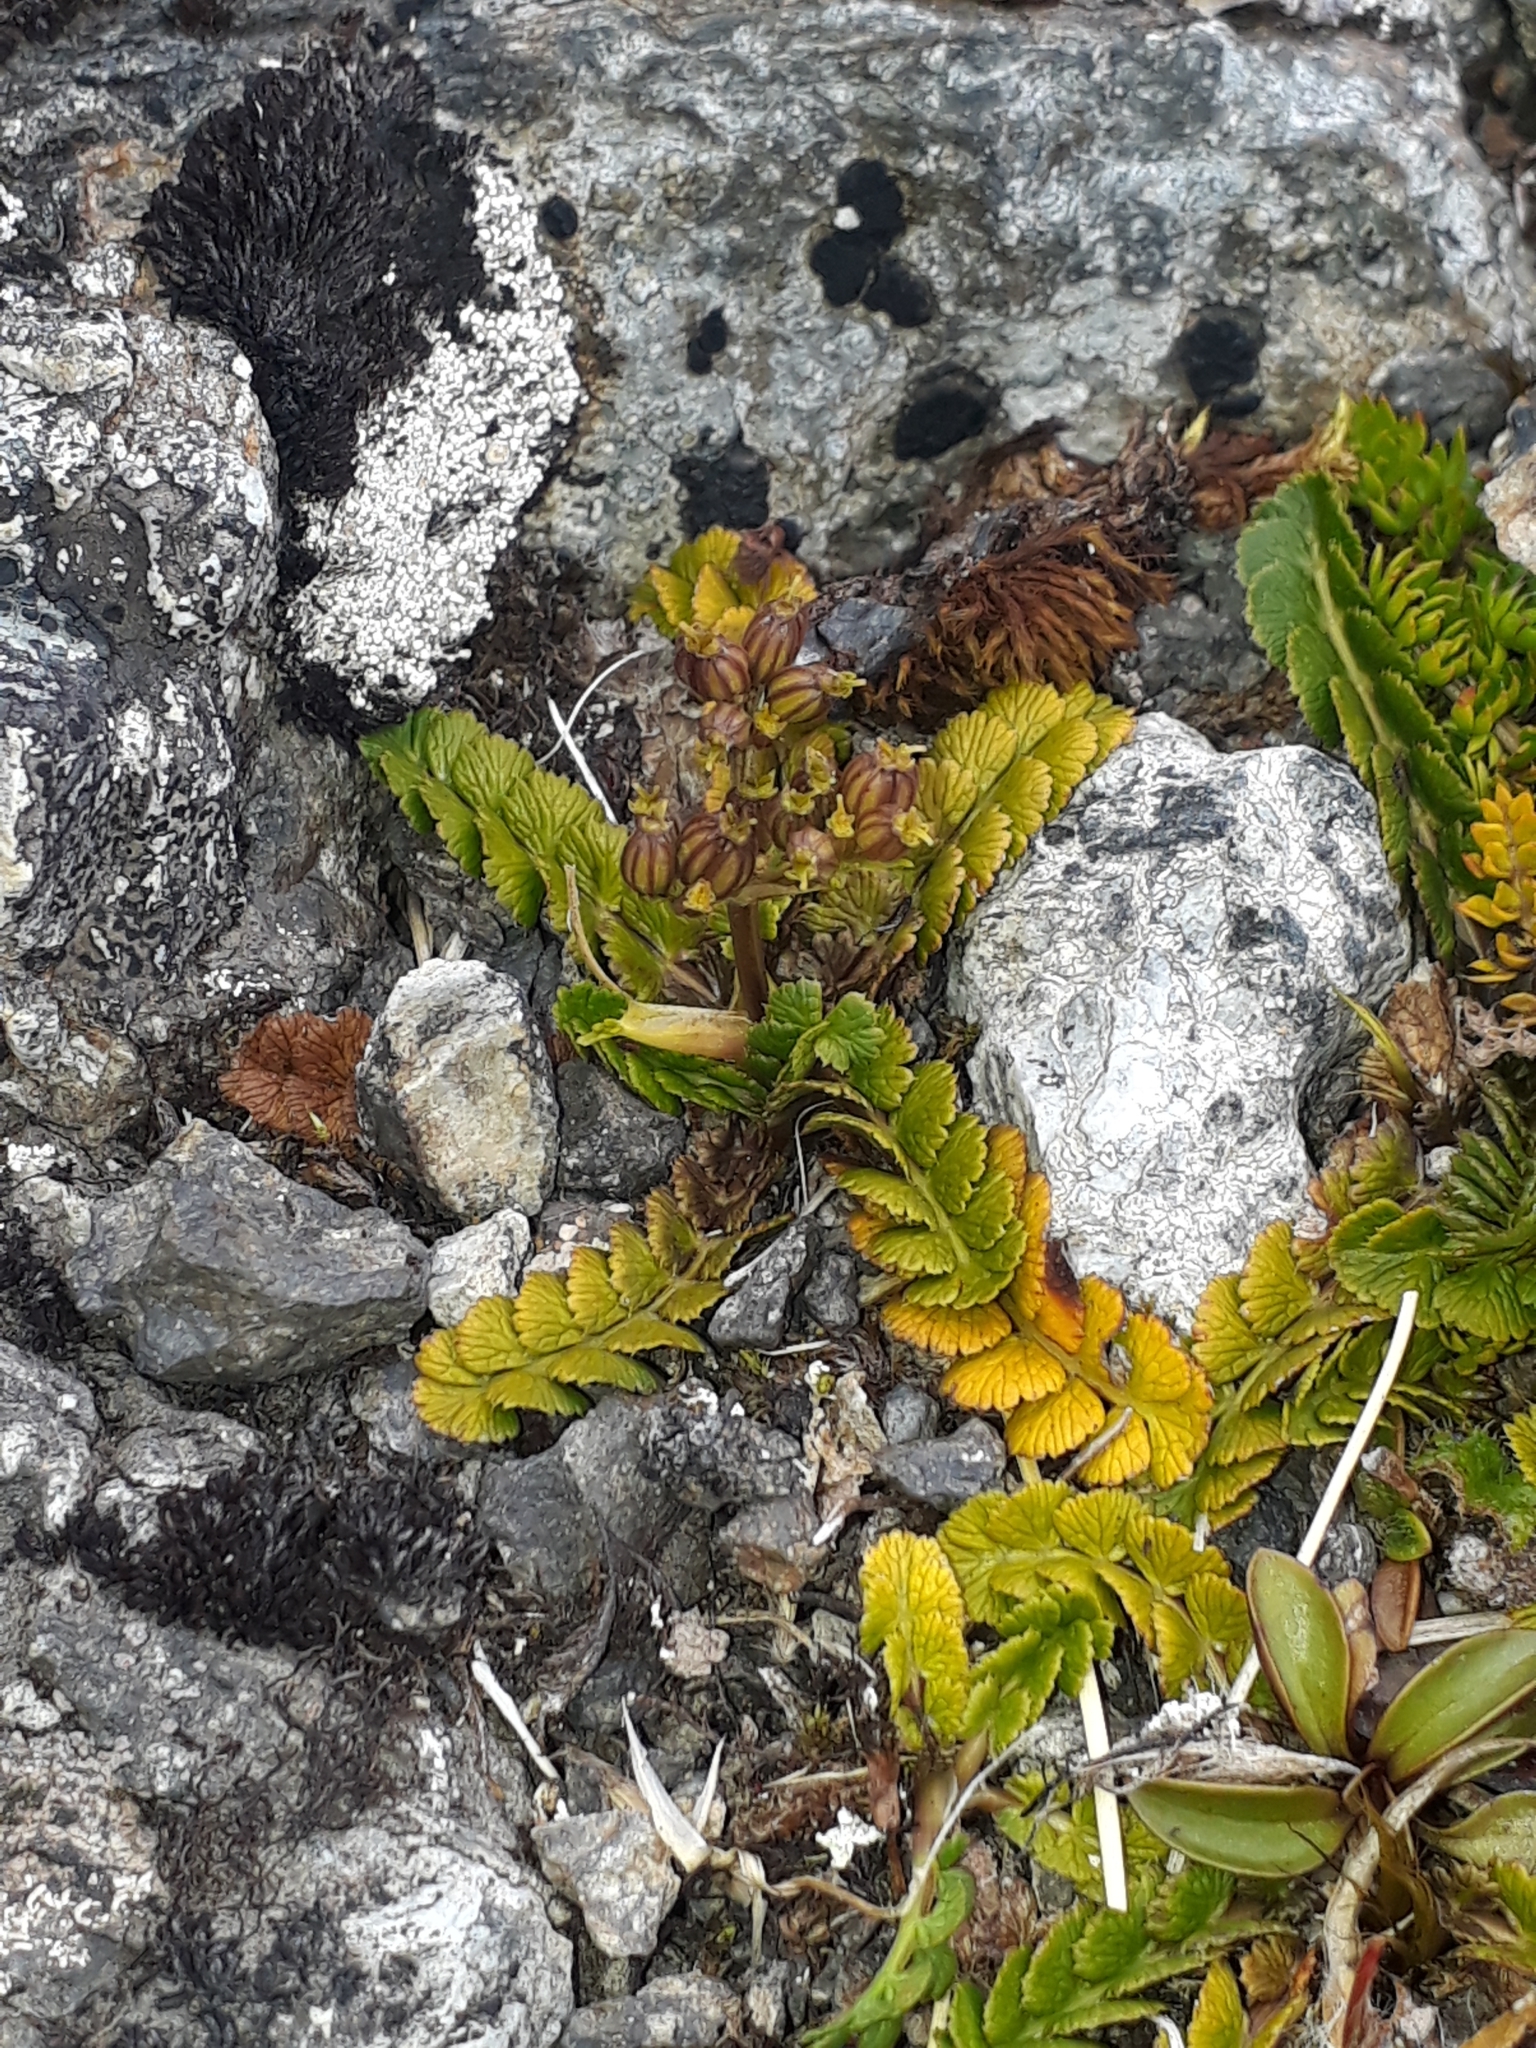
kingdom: Plantae
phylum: Tracheophyta
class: Magnoliopsida
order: Apiales
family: Apiaceae
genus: Anisotome
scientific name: Anisotome aromatica
